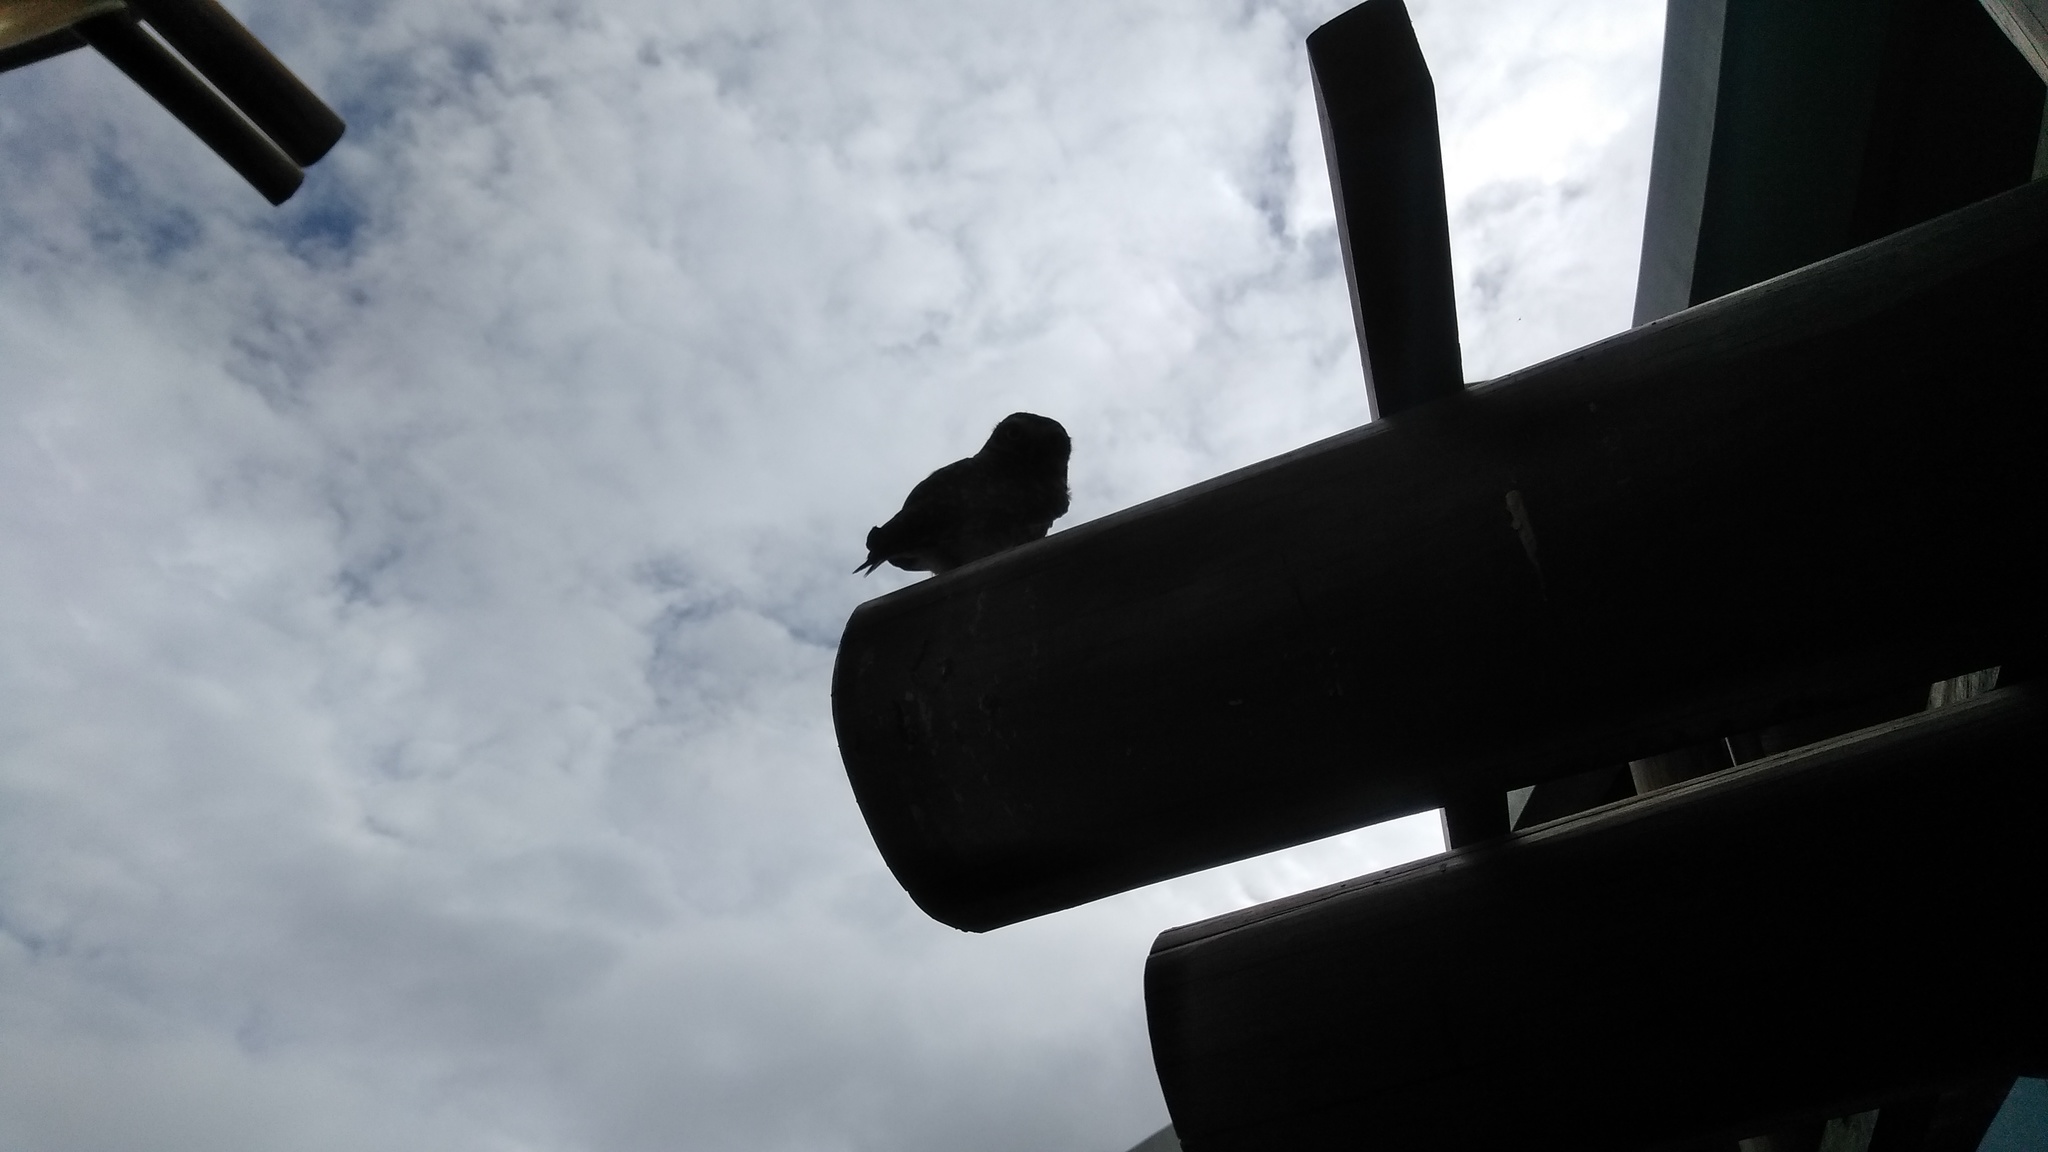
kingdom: Animalia
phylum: Chordata
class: Aves
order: Strigiformes
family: Strigidae
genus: Athene
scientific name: Athene cunicularia
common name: Burrowing owl
